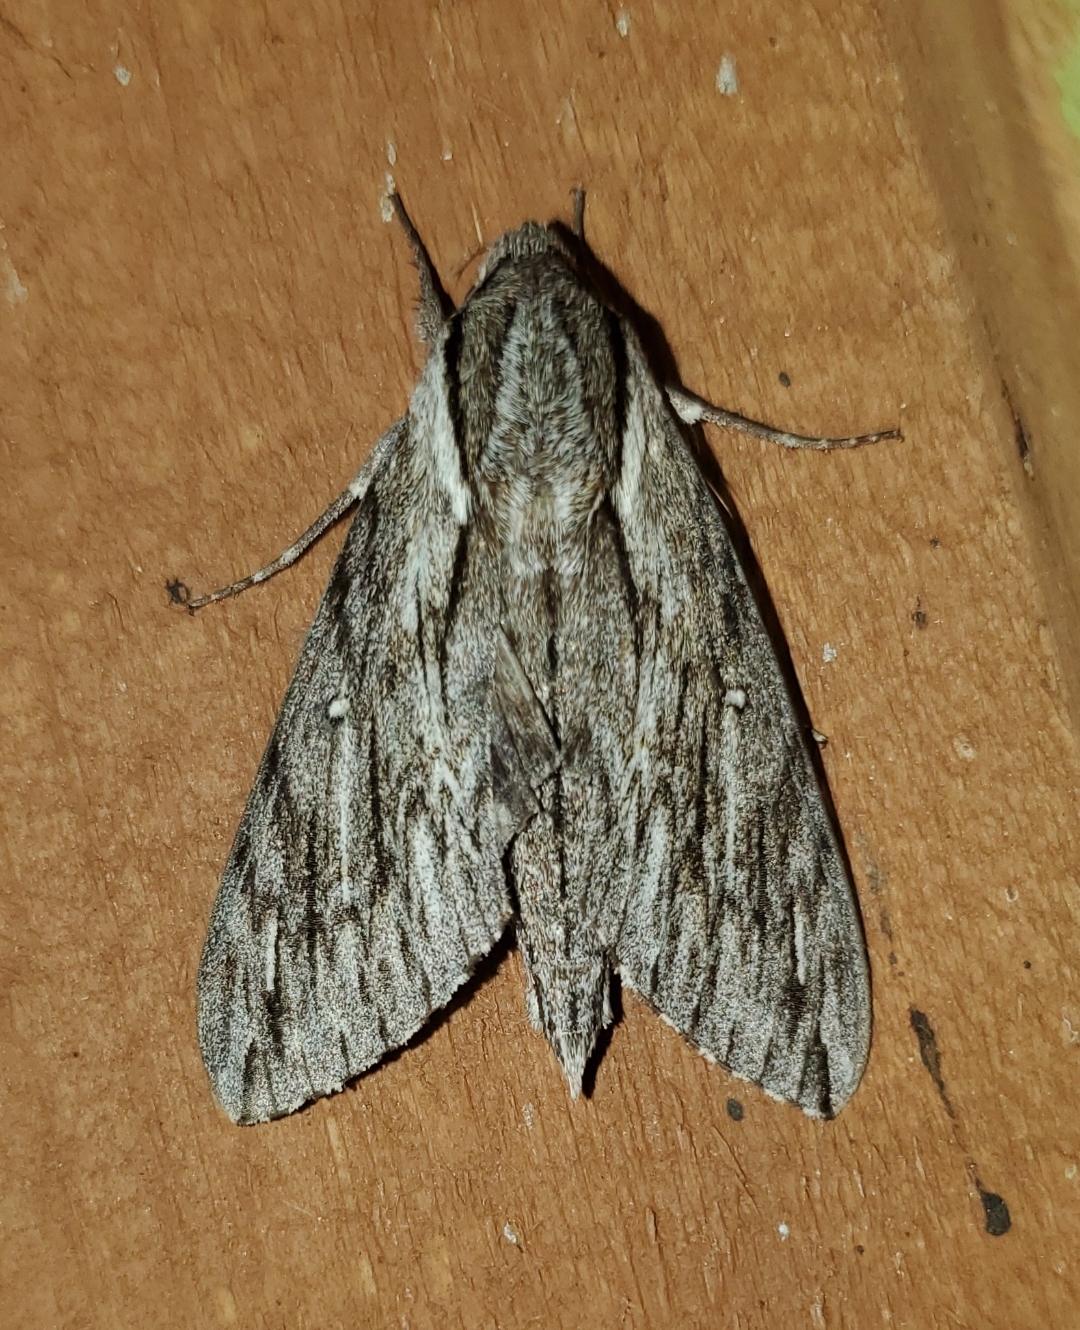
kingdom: Animalia
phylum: Arthropoda
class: Insecta
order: Lepidoptera
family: Sphingidae
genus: Paratrea
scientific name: Paratrea plebeja
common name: Plebian sphinx
